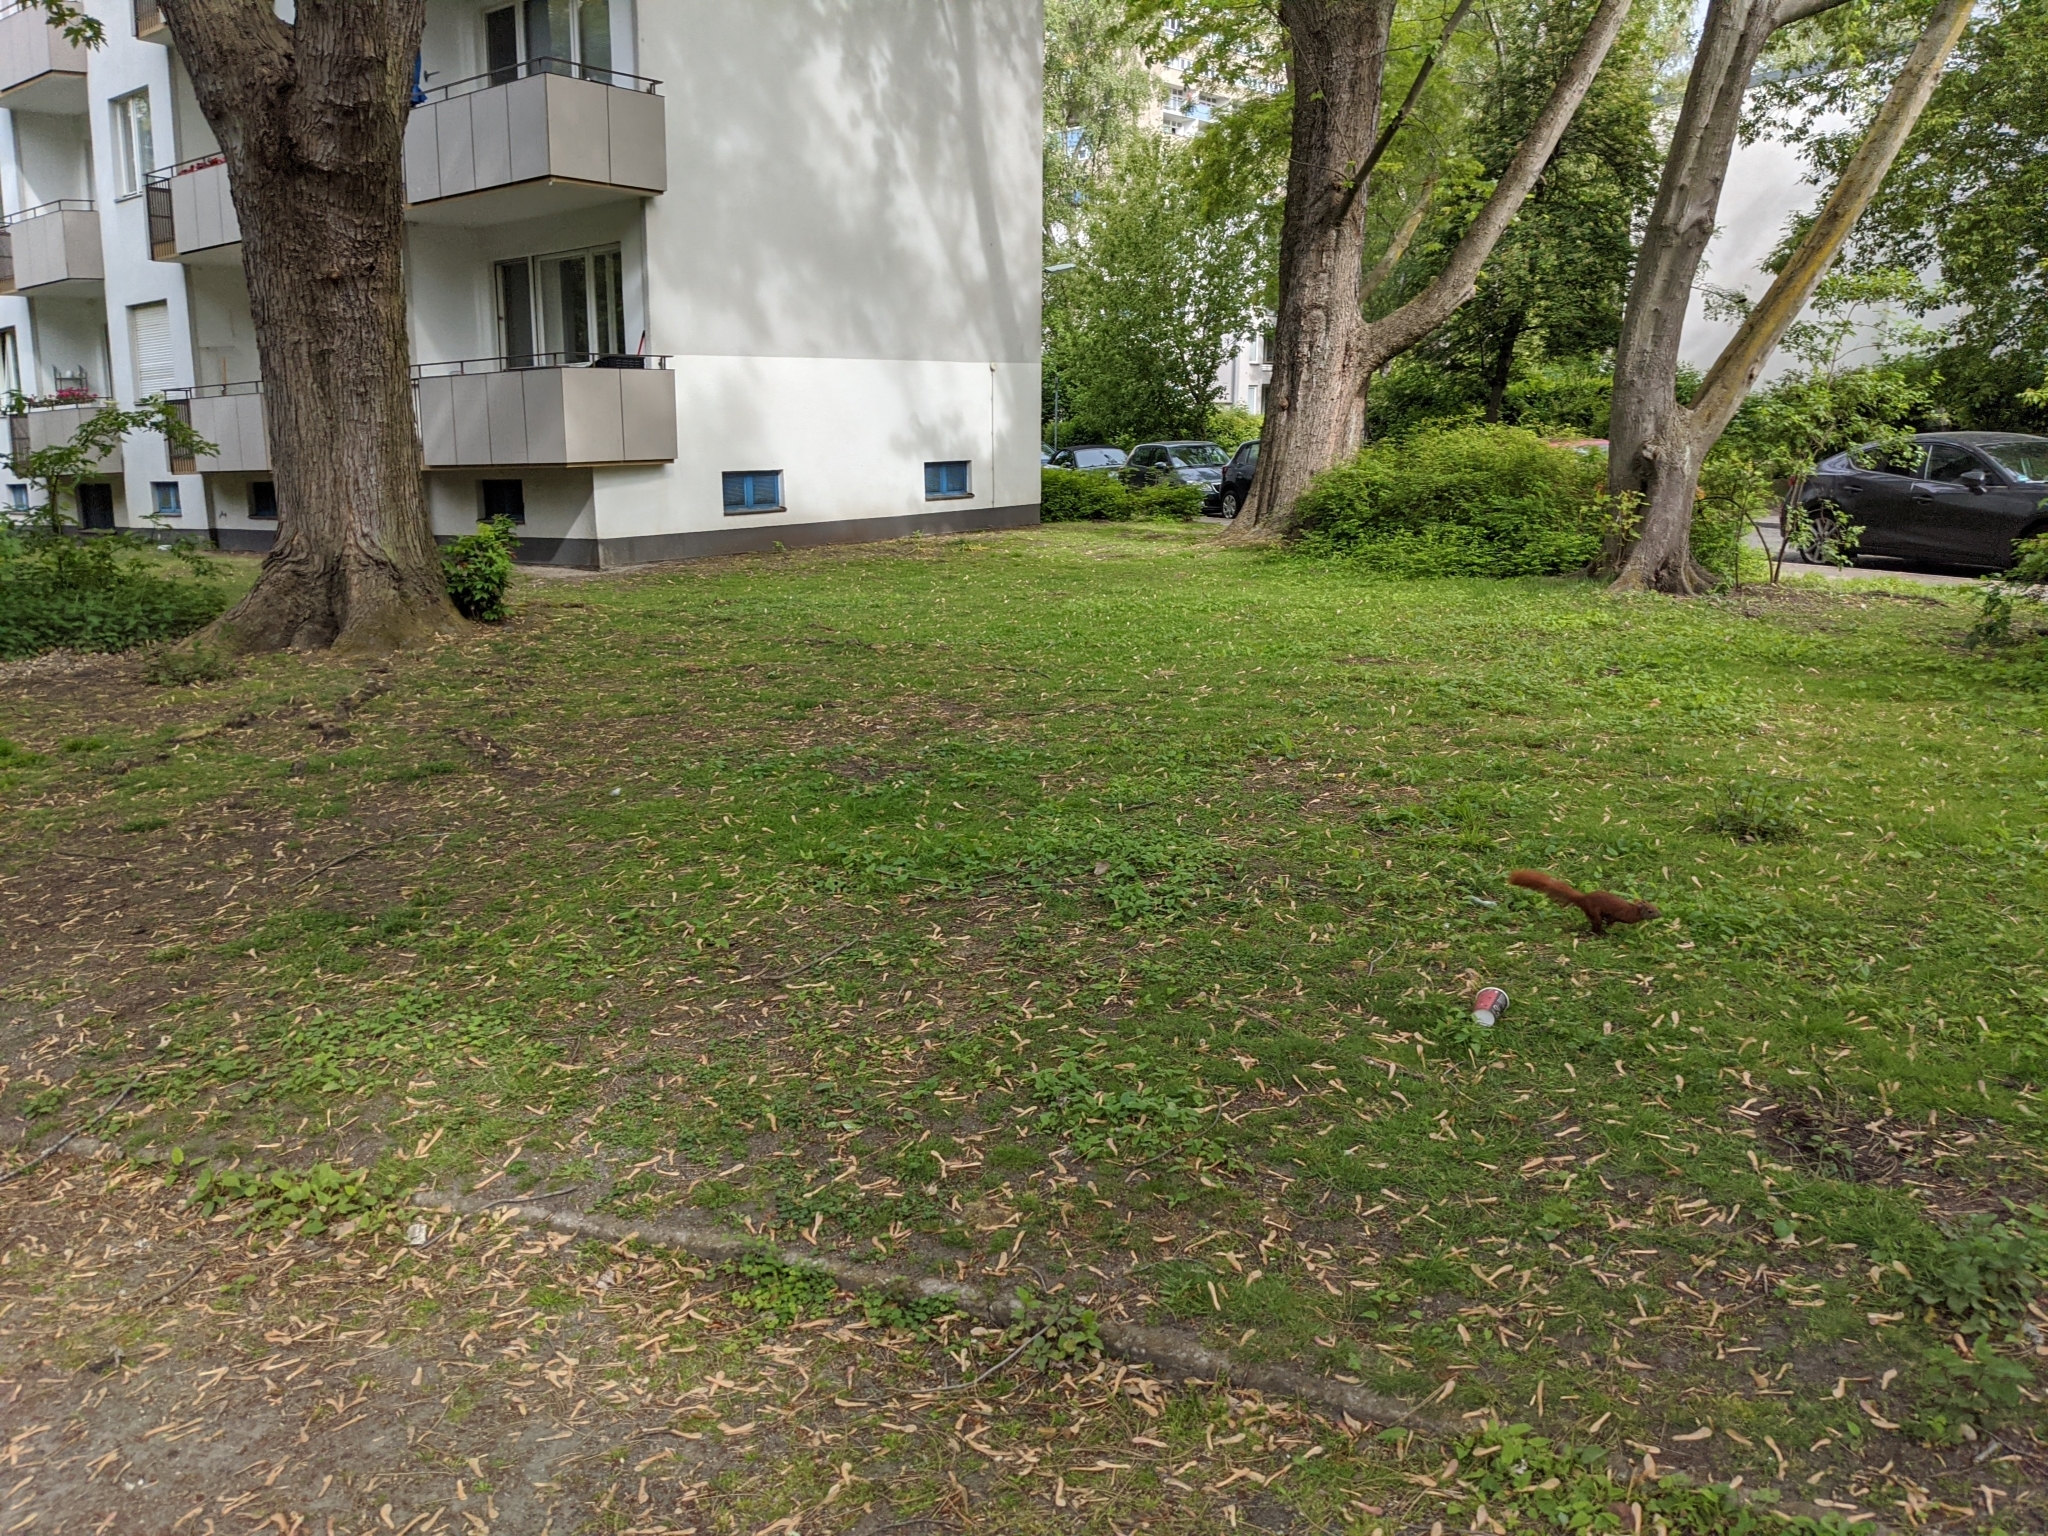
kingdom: Animalia
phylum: Chordata
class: Mammalia
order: Rodentia
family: Sciuridae
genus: Sciurus
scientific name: Sciurus vulgaris
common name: Eurasian red squirrel
